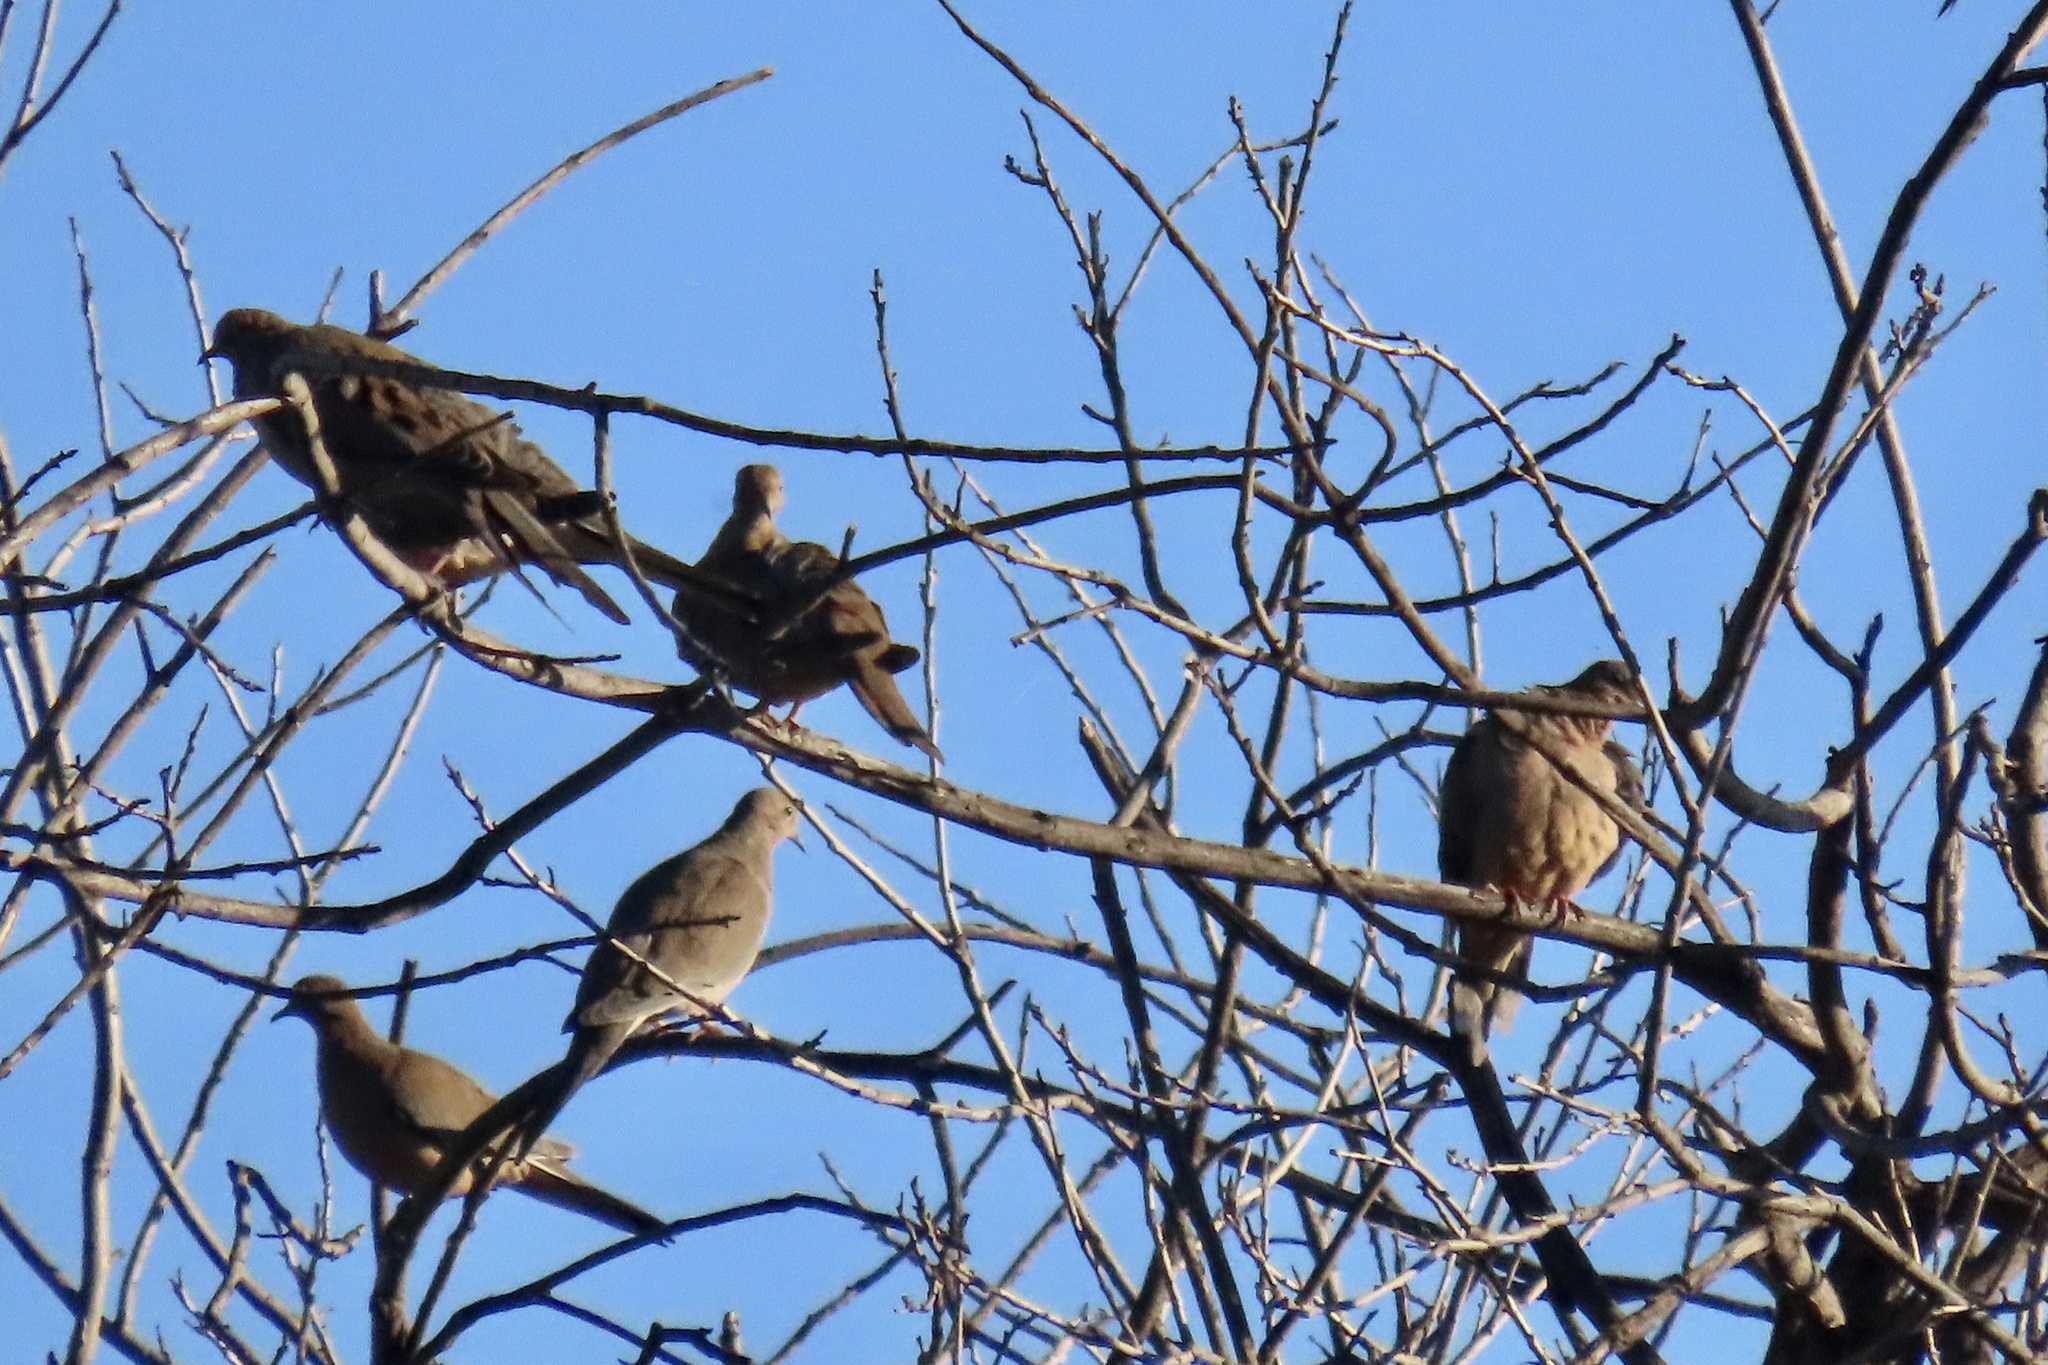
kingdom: Animalia
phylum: Chordata
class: Aves
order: Columbiformes
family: Columbidae
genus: Zenaida
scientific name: Zenaida macroura
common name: Mourning dove
